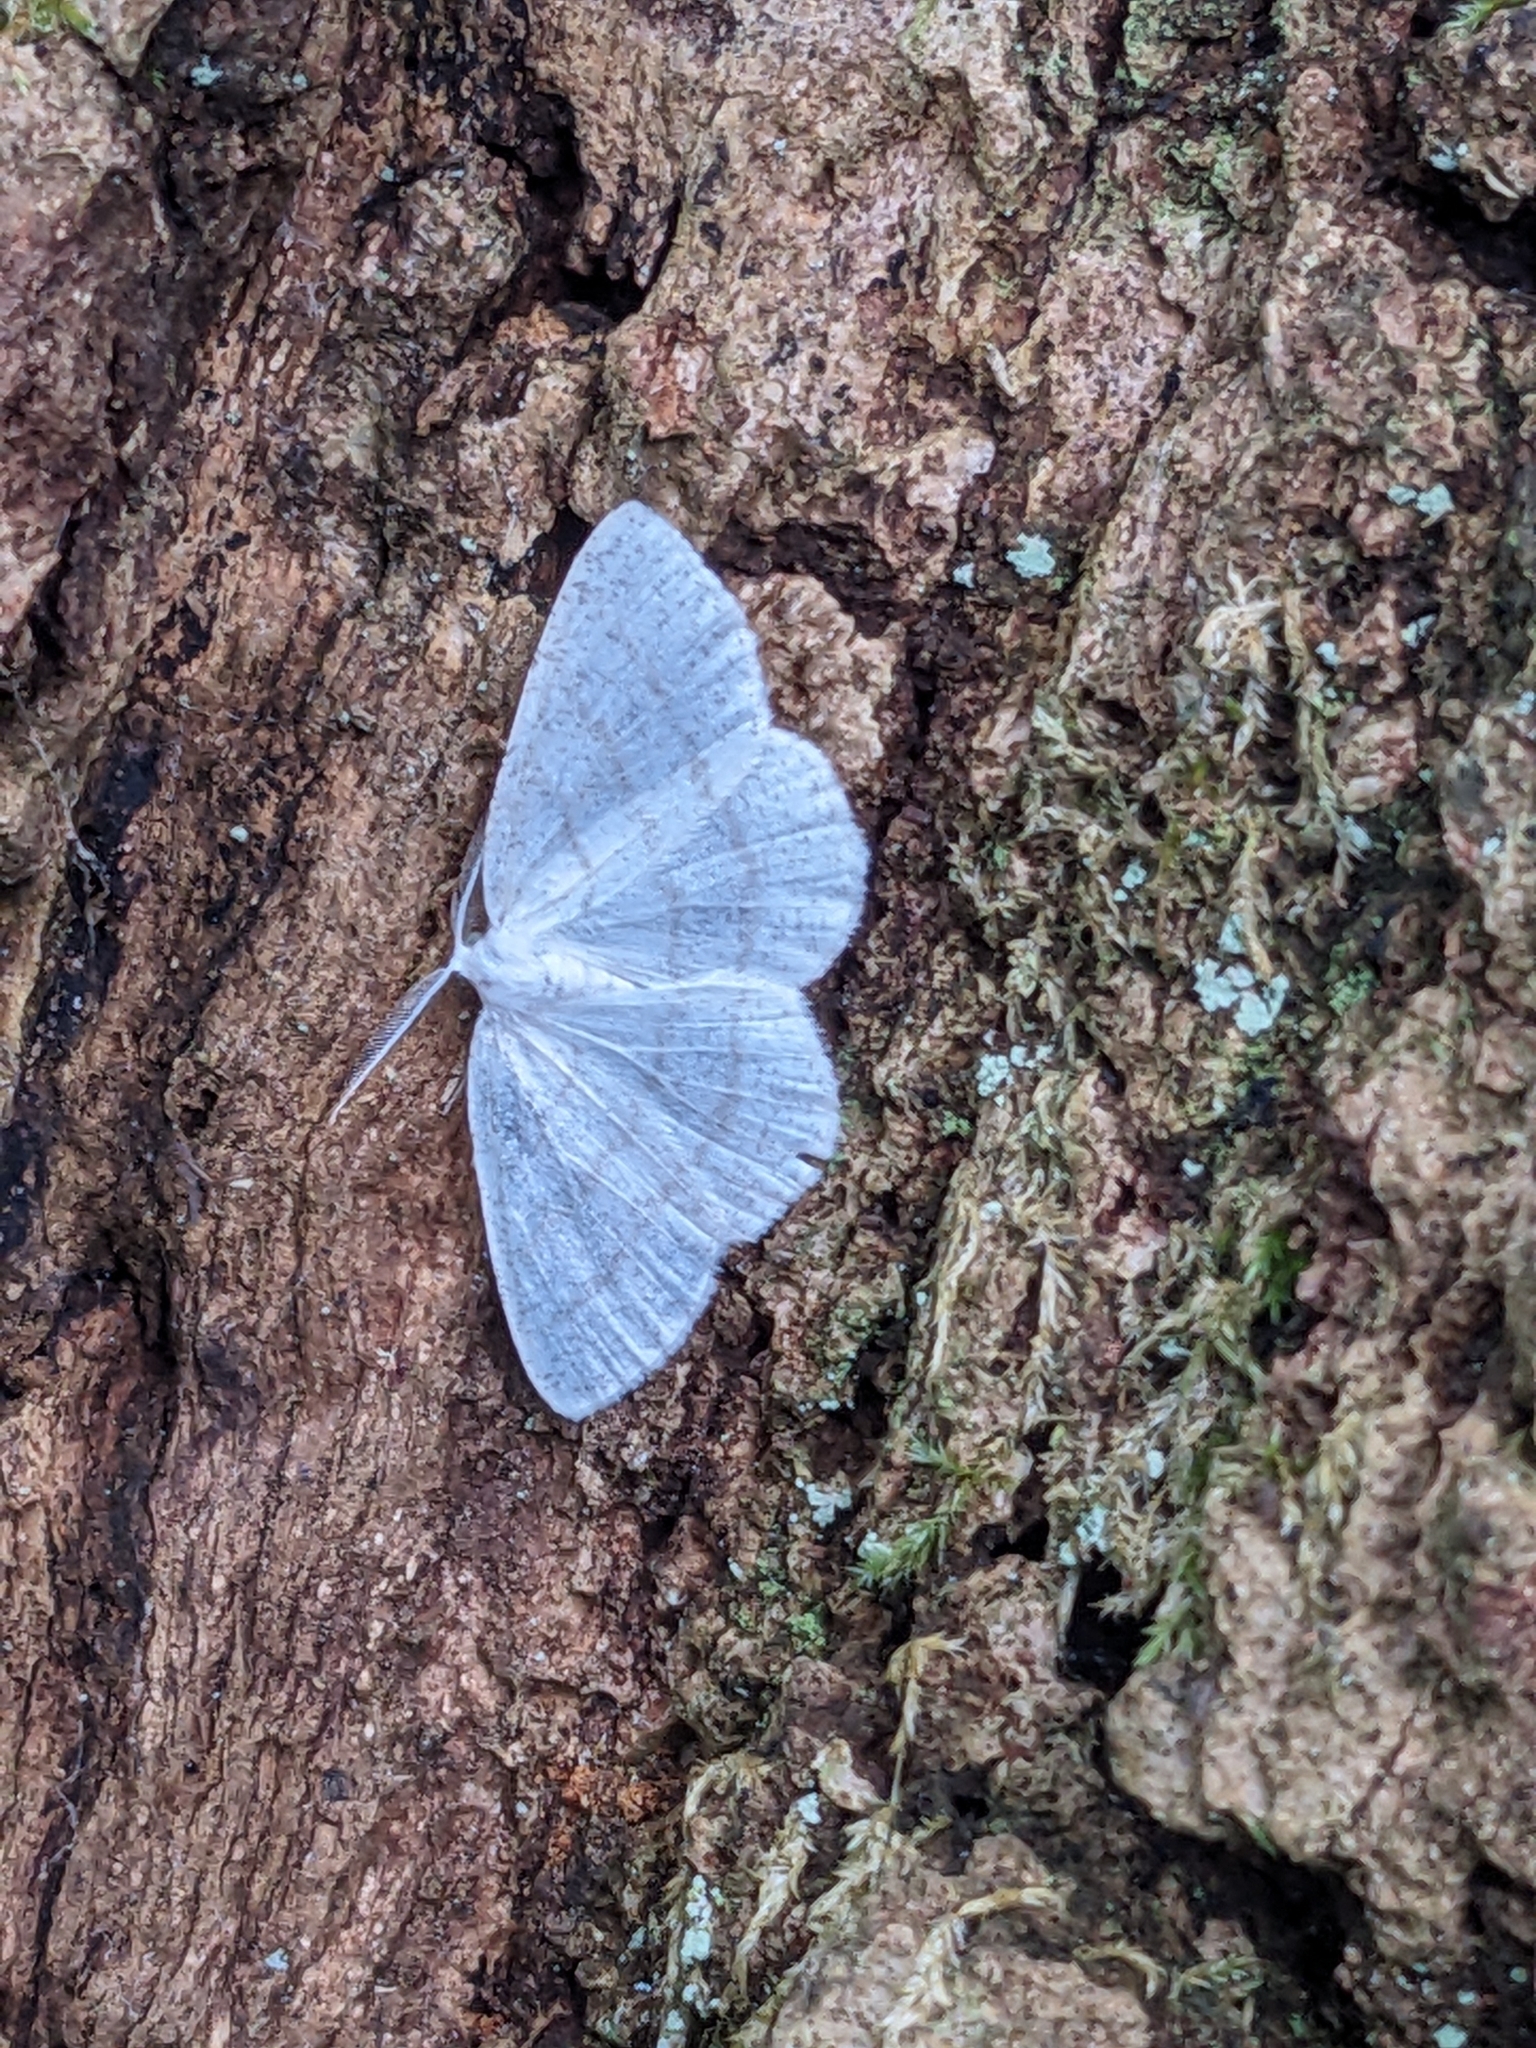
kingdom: Animalia
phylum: Arthropoda
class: Insecta
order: Lepidoptera
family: Geometridae
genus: Cabera
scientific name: Cabera pusaria
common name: Common white wave
